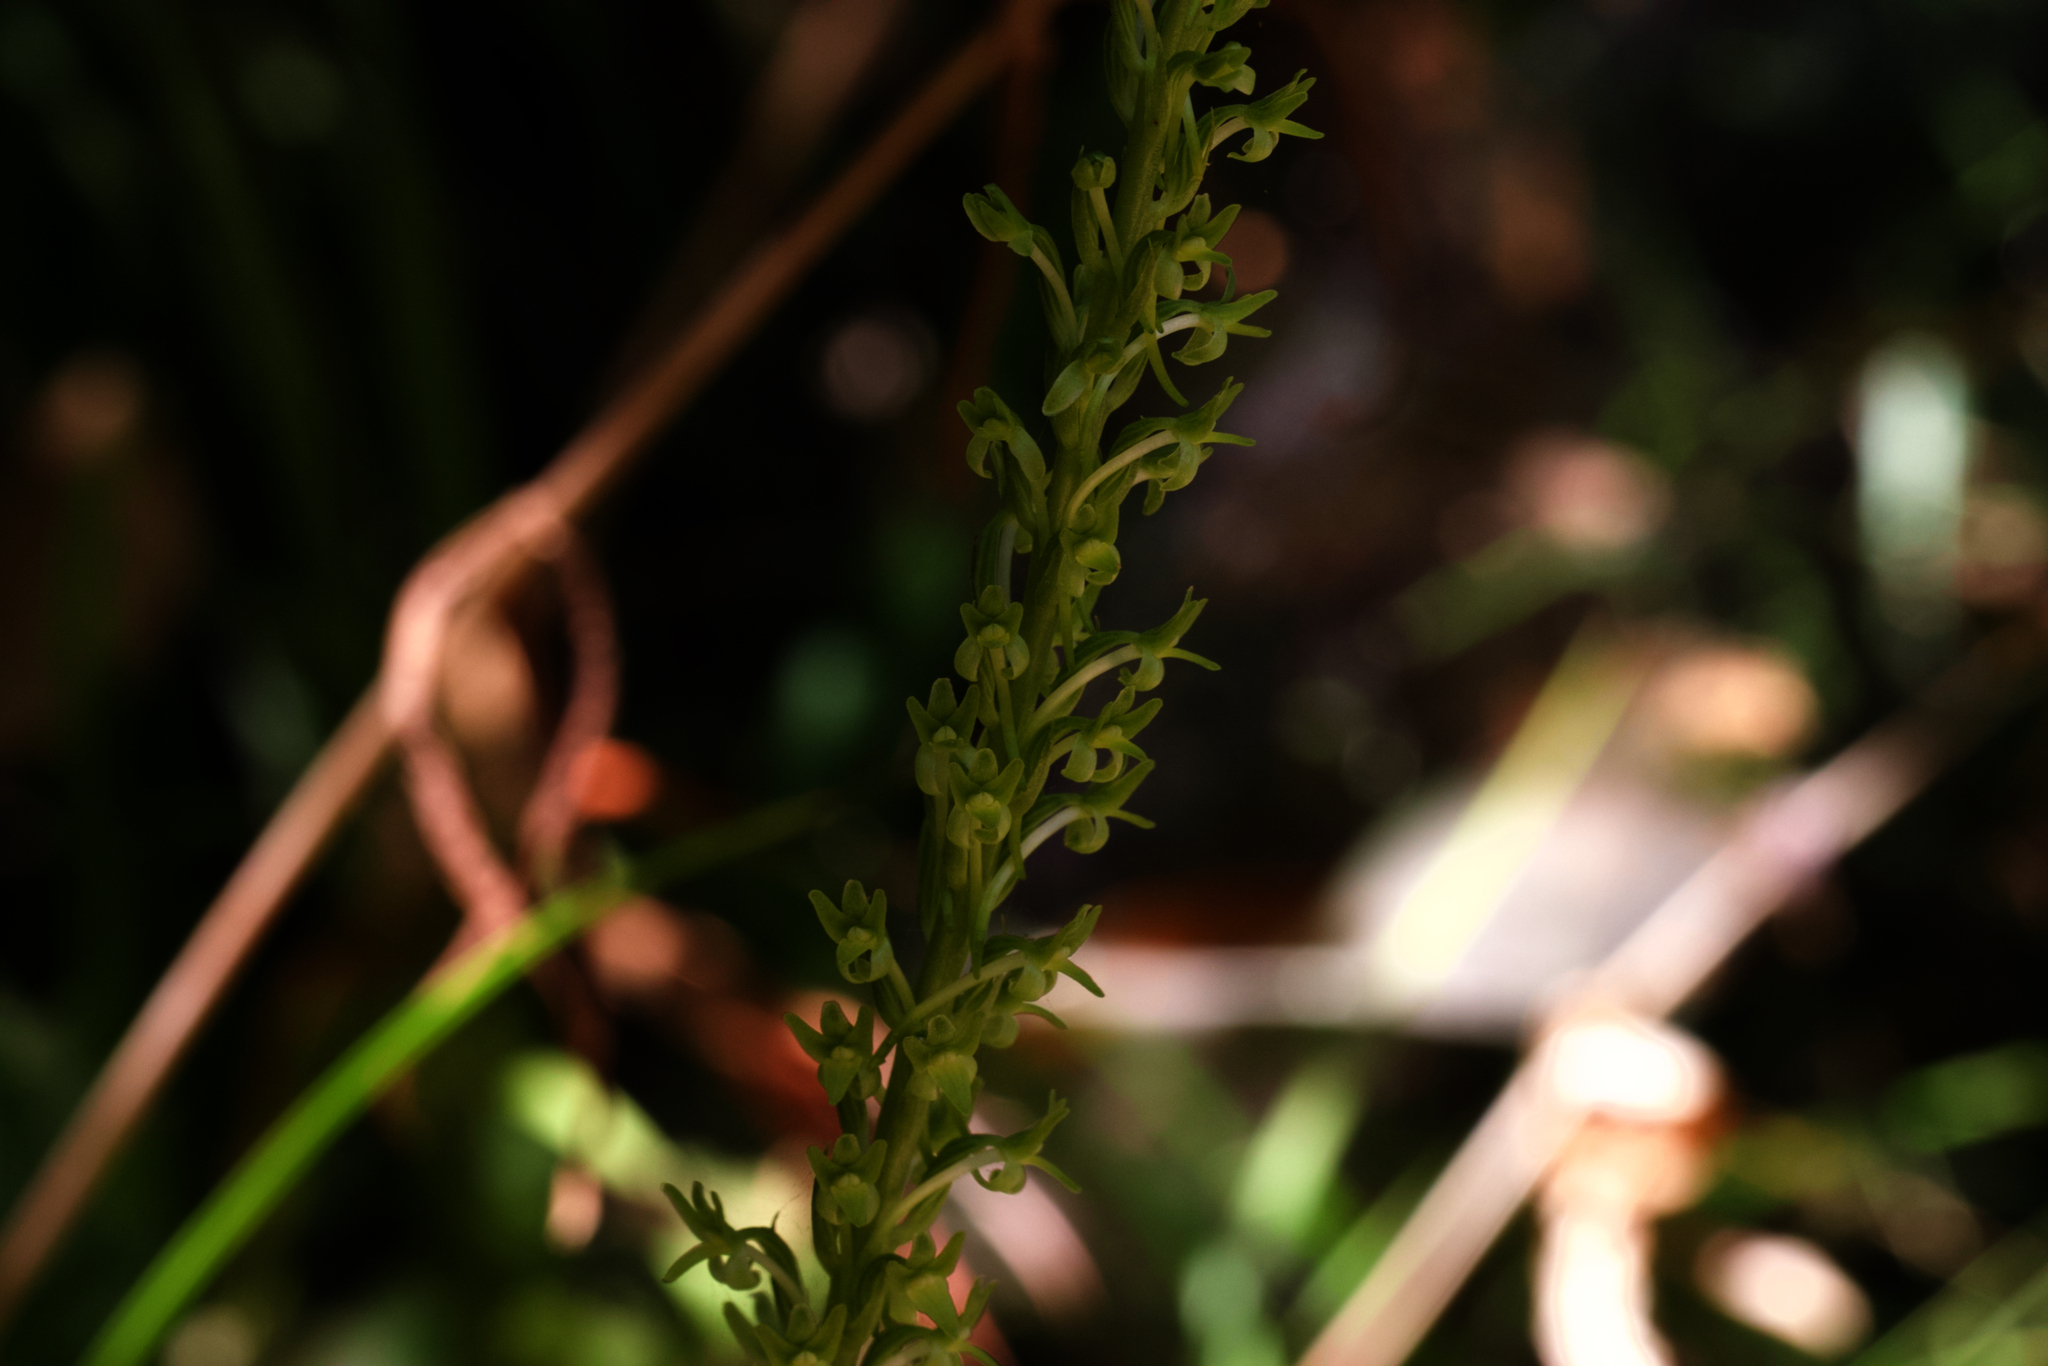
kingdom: Plantae
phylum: Tracheophyta
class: Liliopsida
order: Asparagales
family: Orchidaceae
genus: Platanthera
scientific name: Platanthera elongata
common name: Dense-flowered rein orchid
